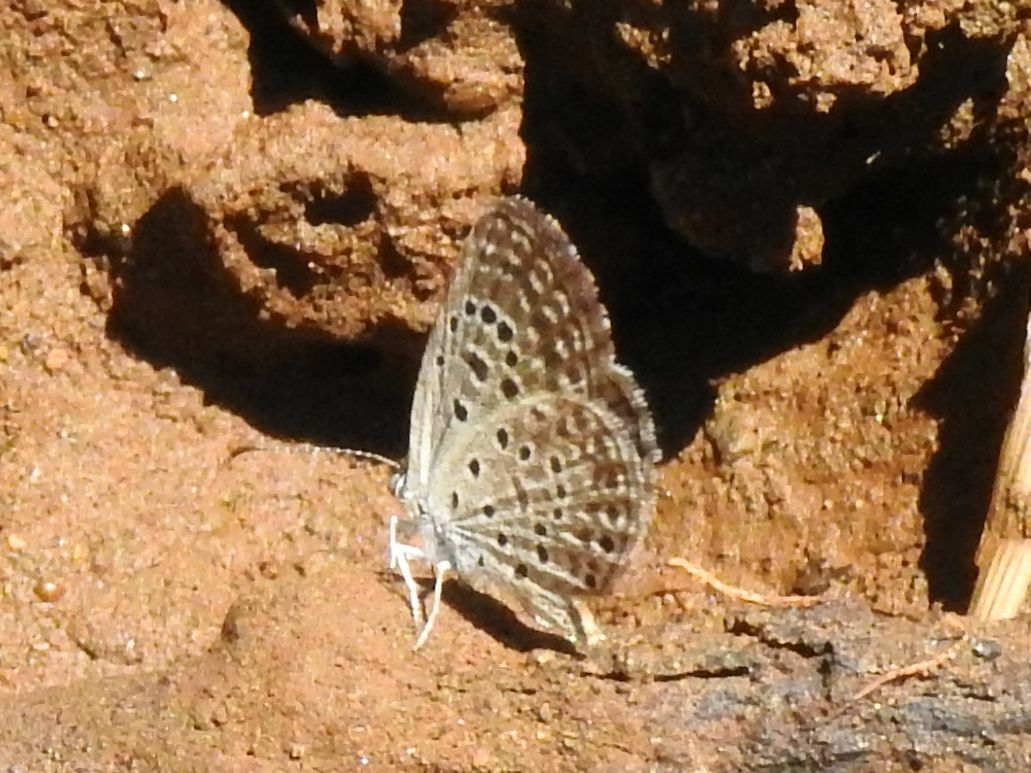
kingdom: Animalia
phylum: Arthropoda
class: Insecta
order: Lepidoptera
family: Lycaenidae
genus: Actizera
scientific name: Actizera lucida
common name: Rayed blue
